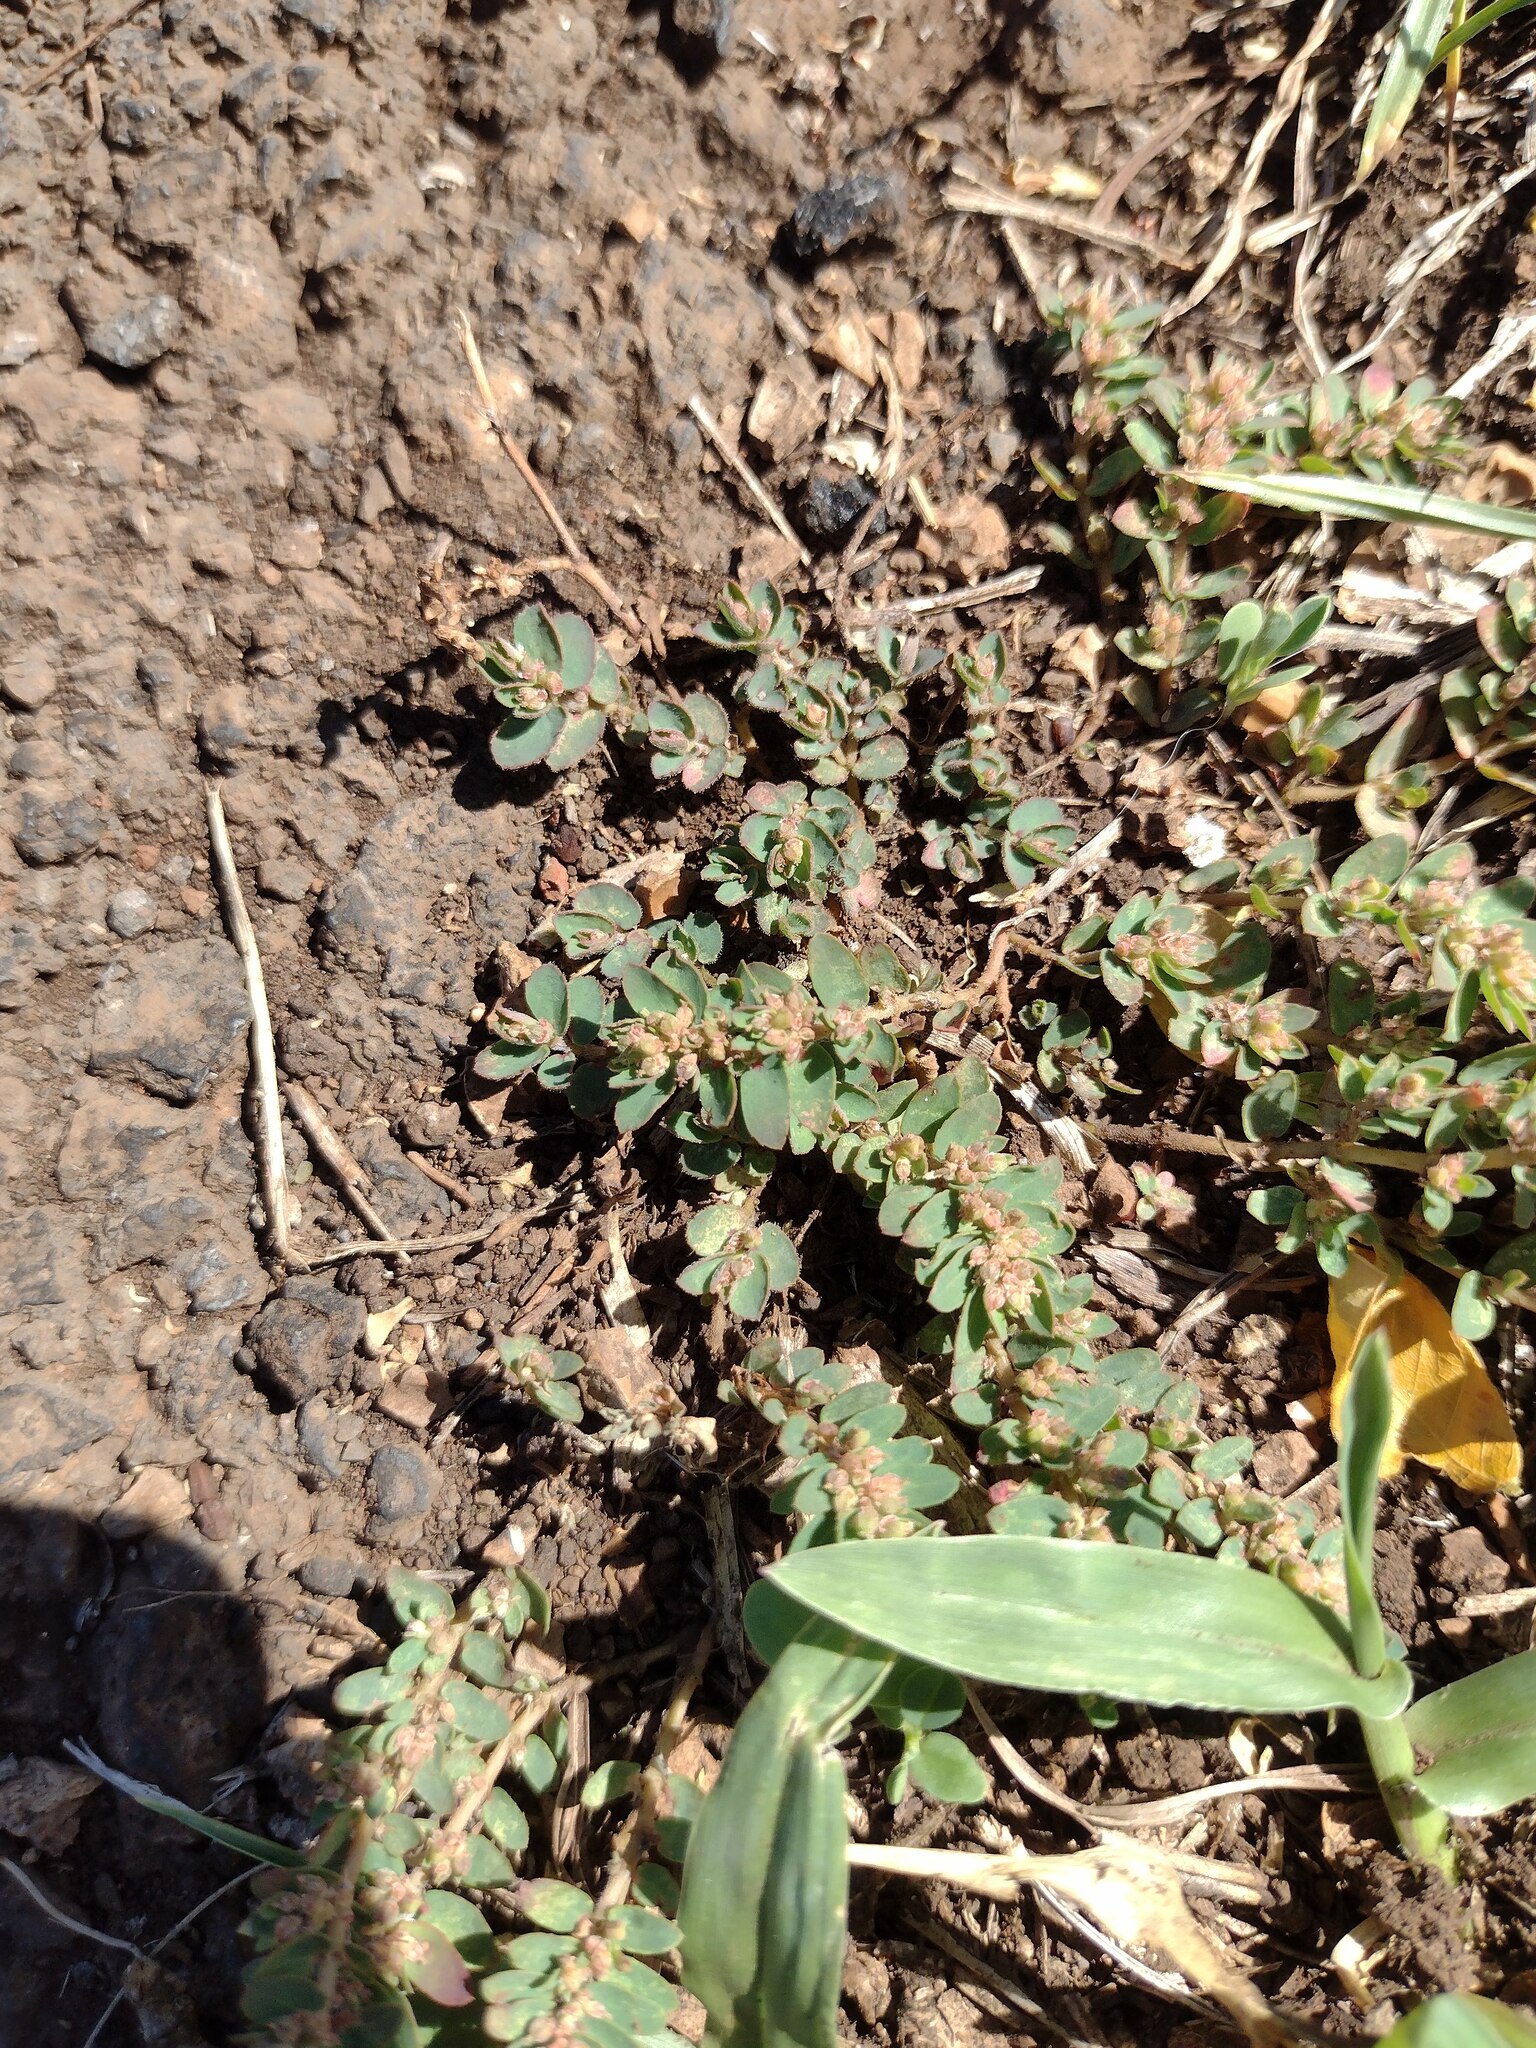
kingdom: Plantae
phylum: Tracheophyta
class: Magnoliopsida
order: Malpighiales
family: Euphorbiaceae
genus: Euphorbia
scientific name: Euphorbia thymifolia
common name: Gulf sandmat
